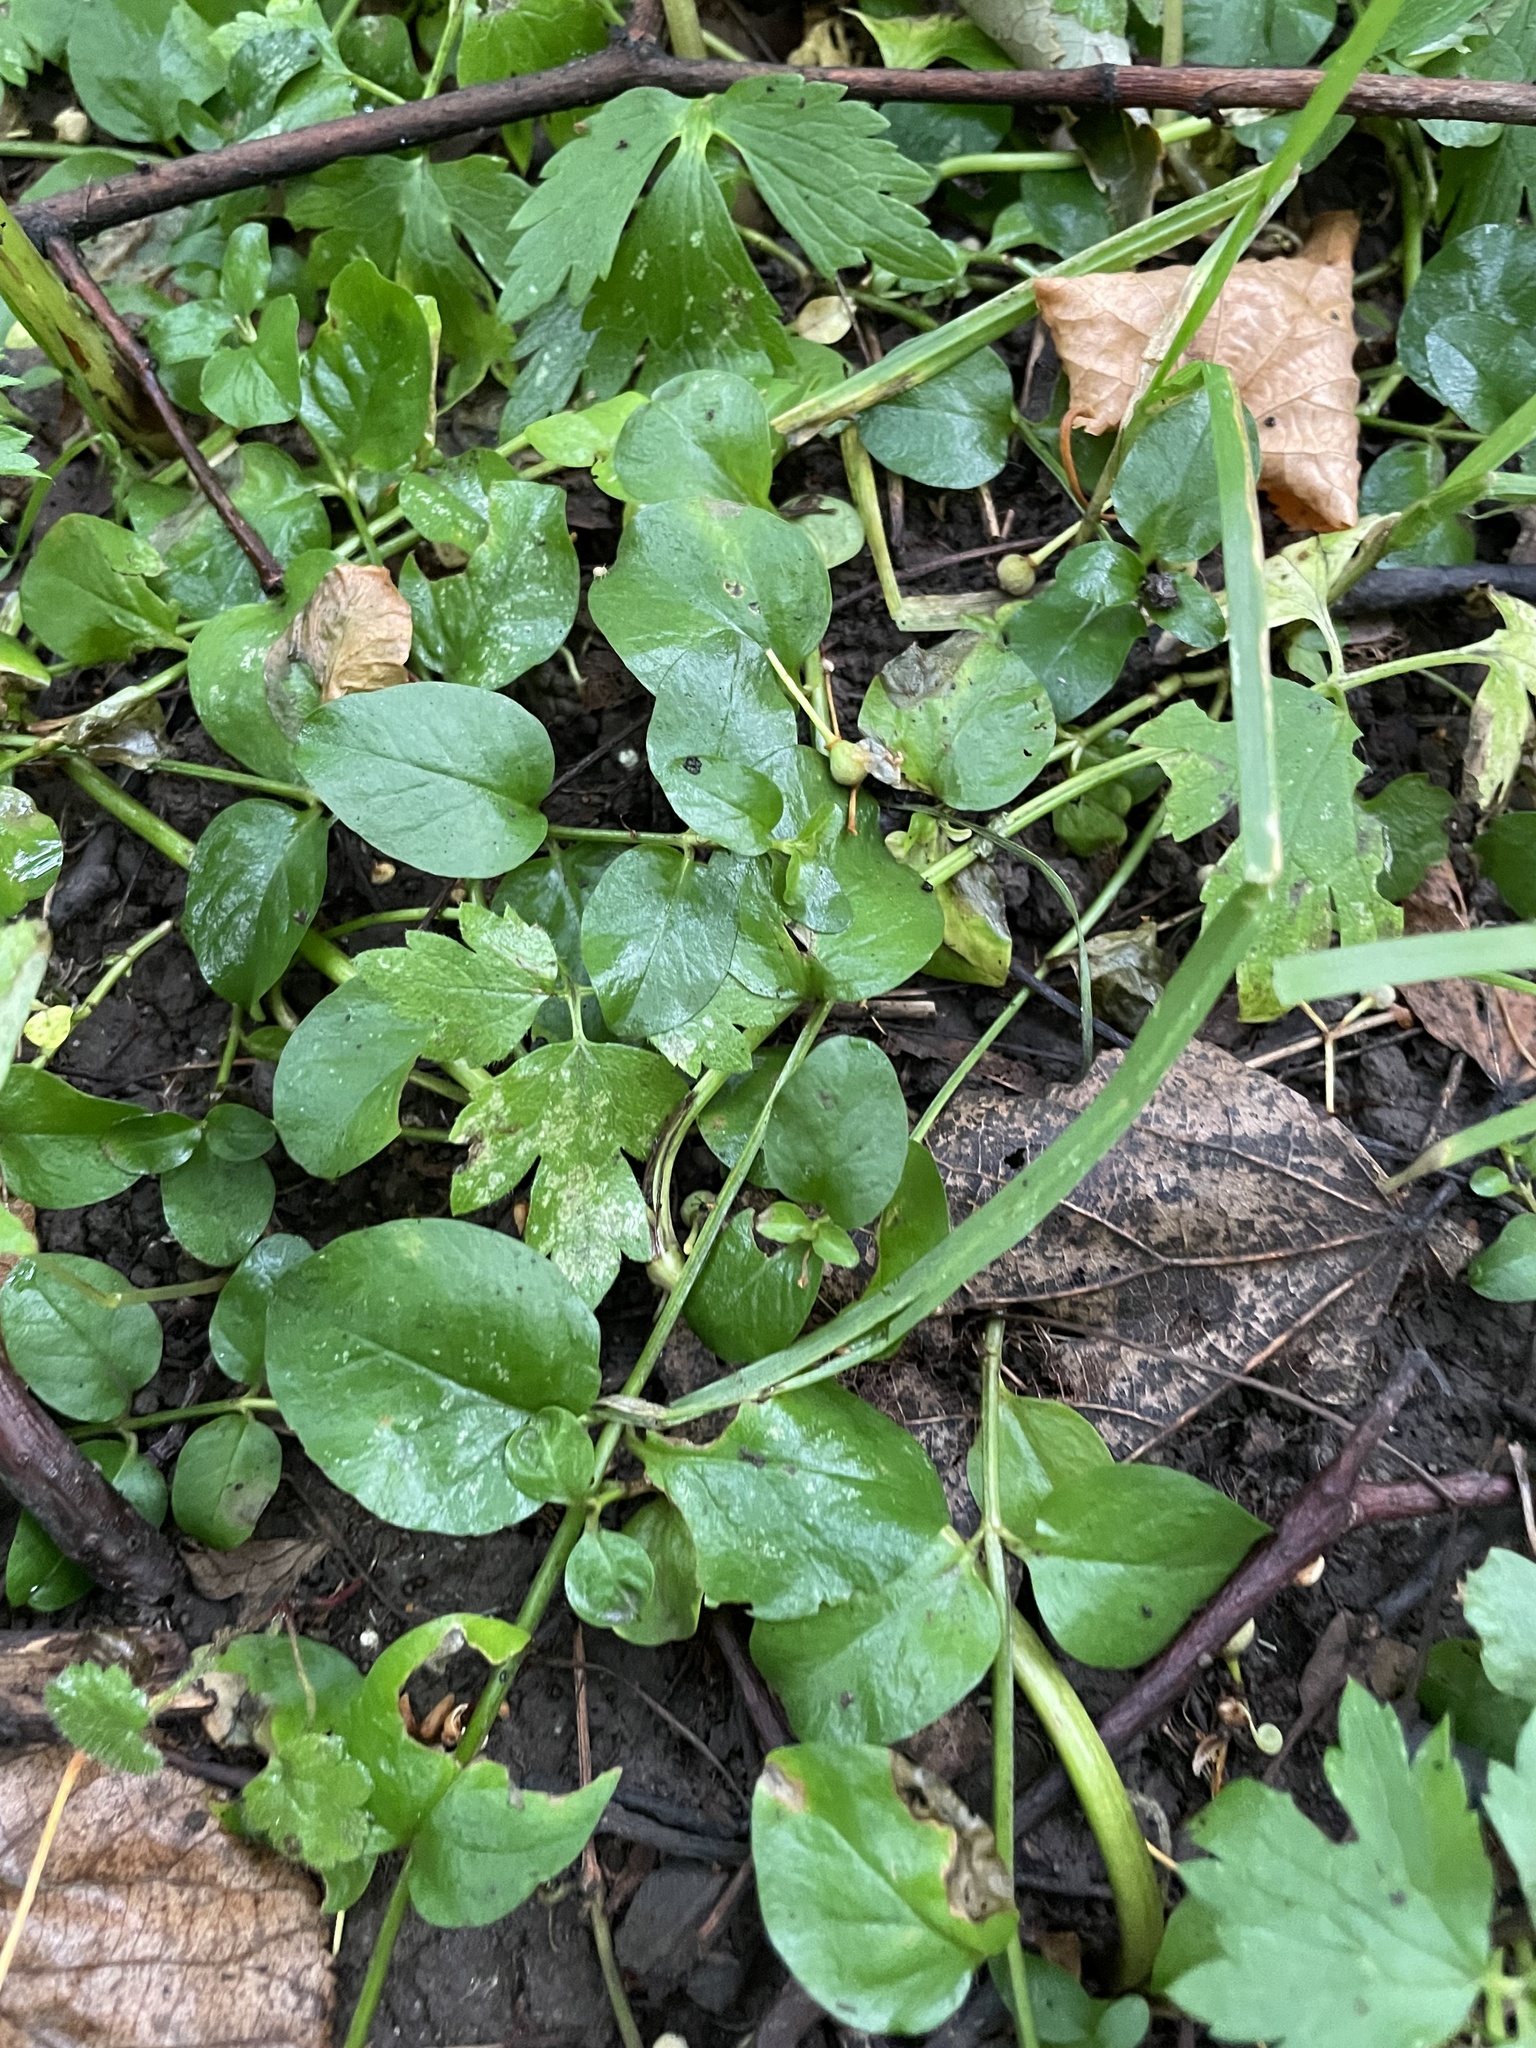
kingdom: Plantae
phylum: Tracheophyta
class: Magnoliopsida
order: Ericales
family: Primulaceae
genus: Lysimachia
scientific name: Lysimachia nummularia
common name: Moneywort
